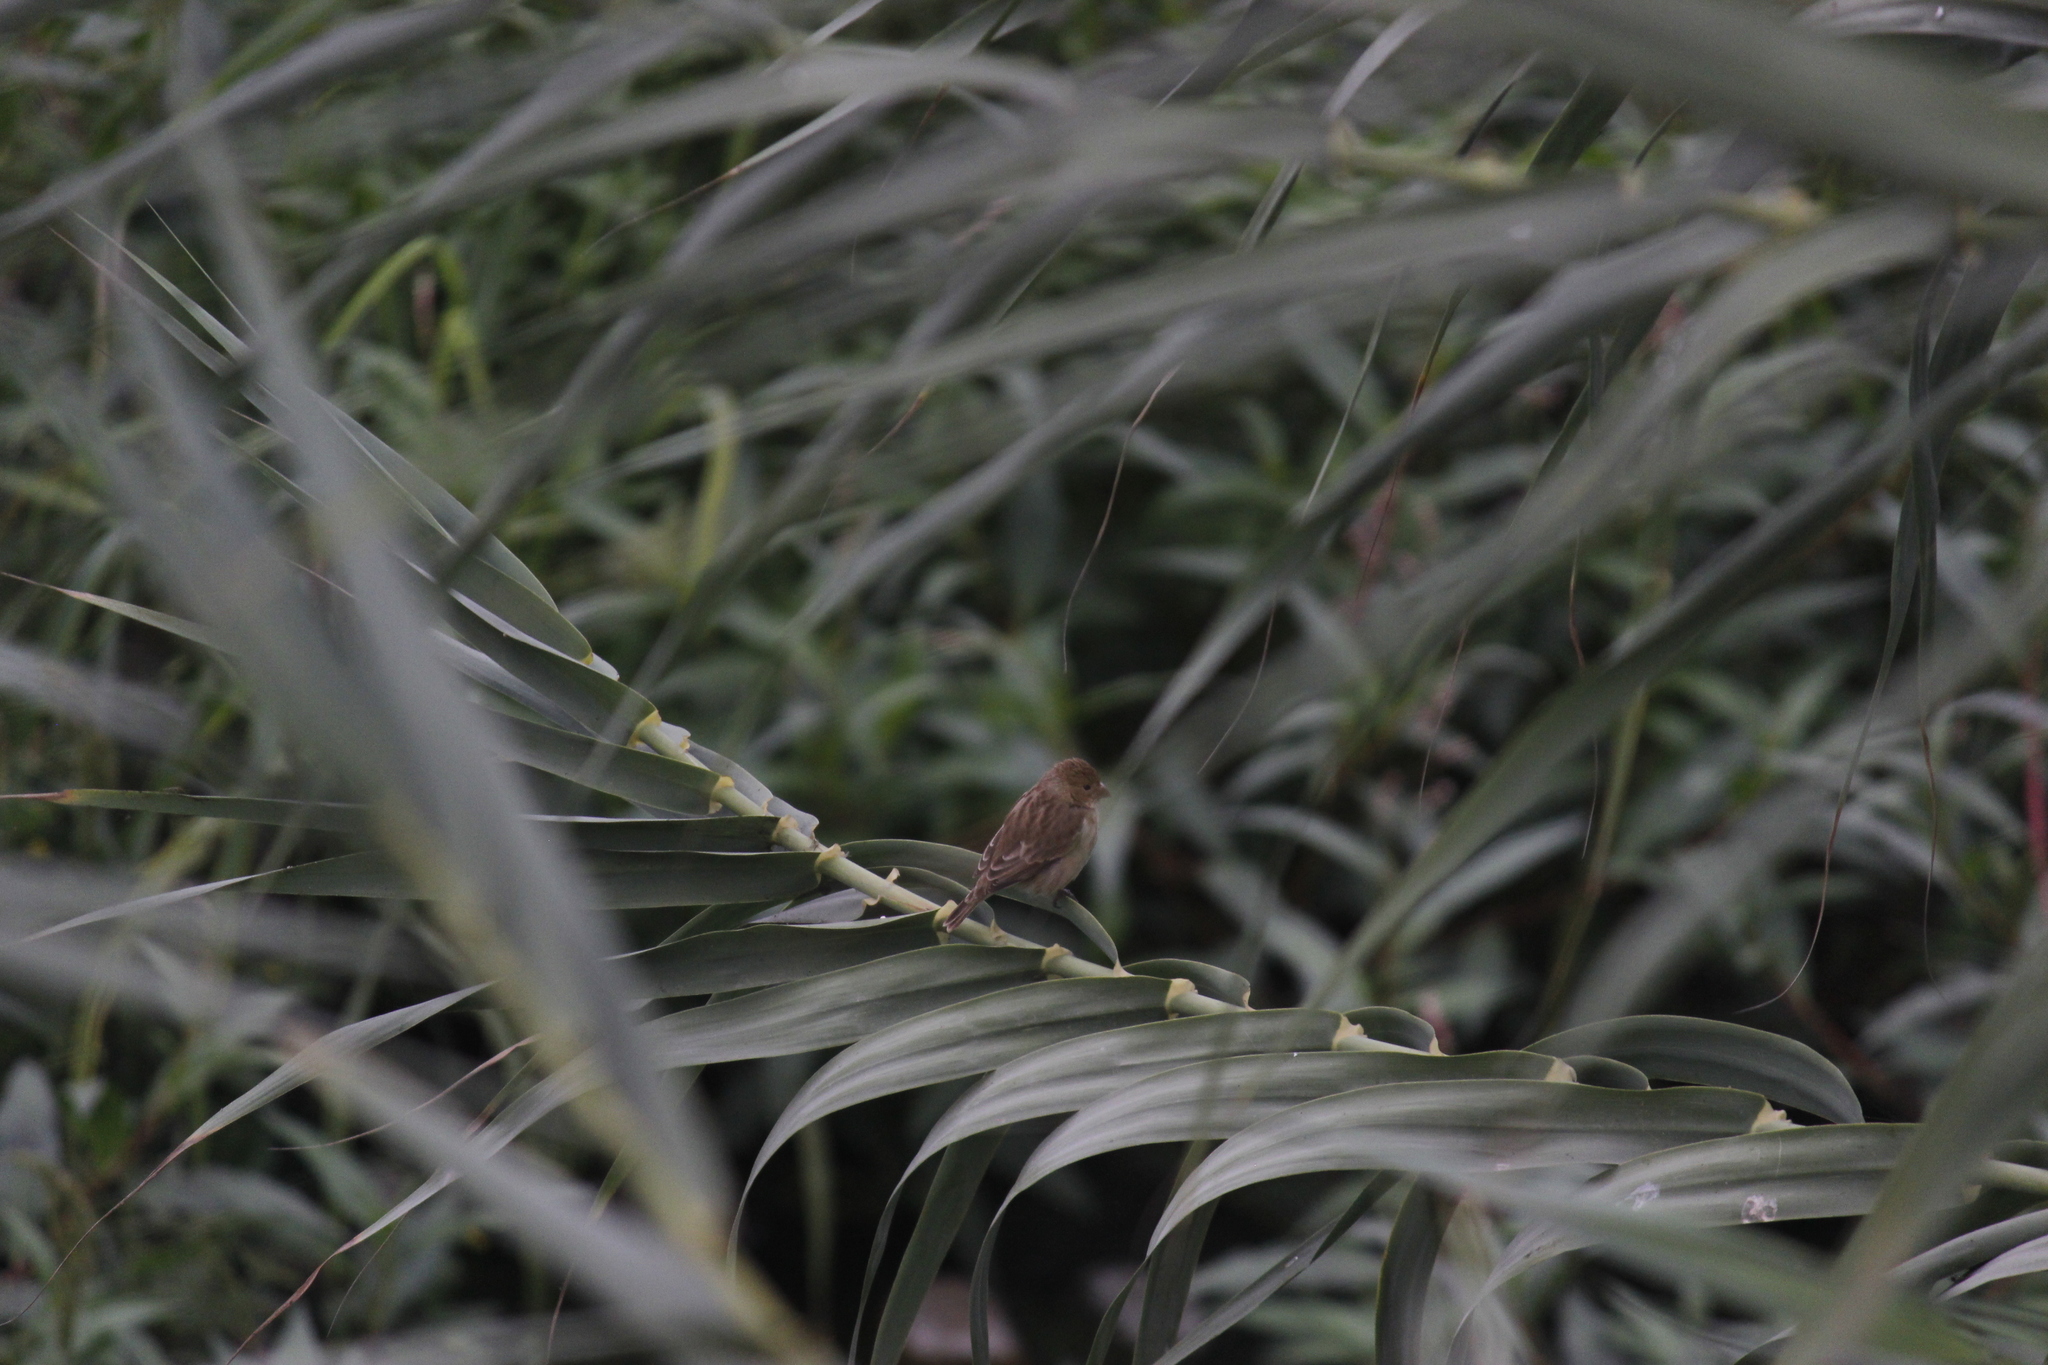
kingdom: Animalia
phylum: Chordata
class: Aves
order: Passeriformes
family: Thraupidae
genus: Sporophila
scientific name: Sporophila telasco
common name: Chestnut-throated seedeater
